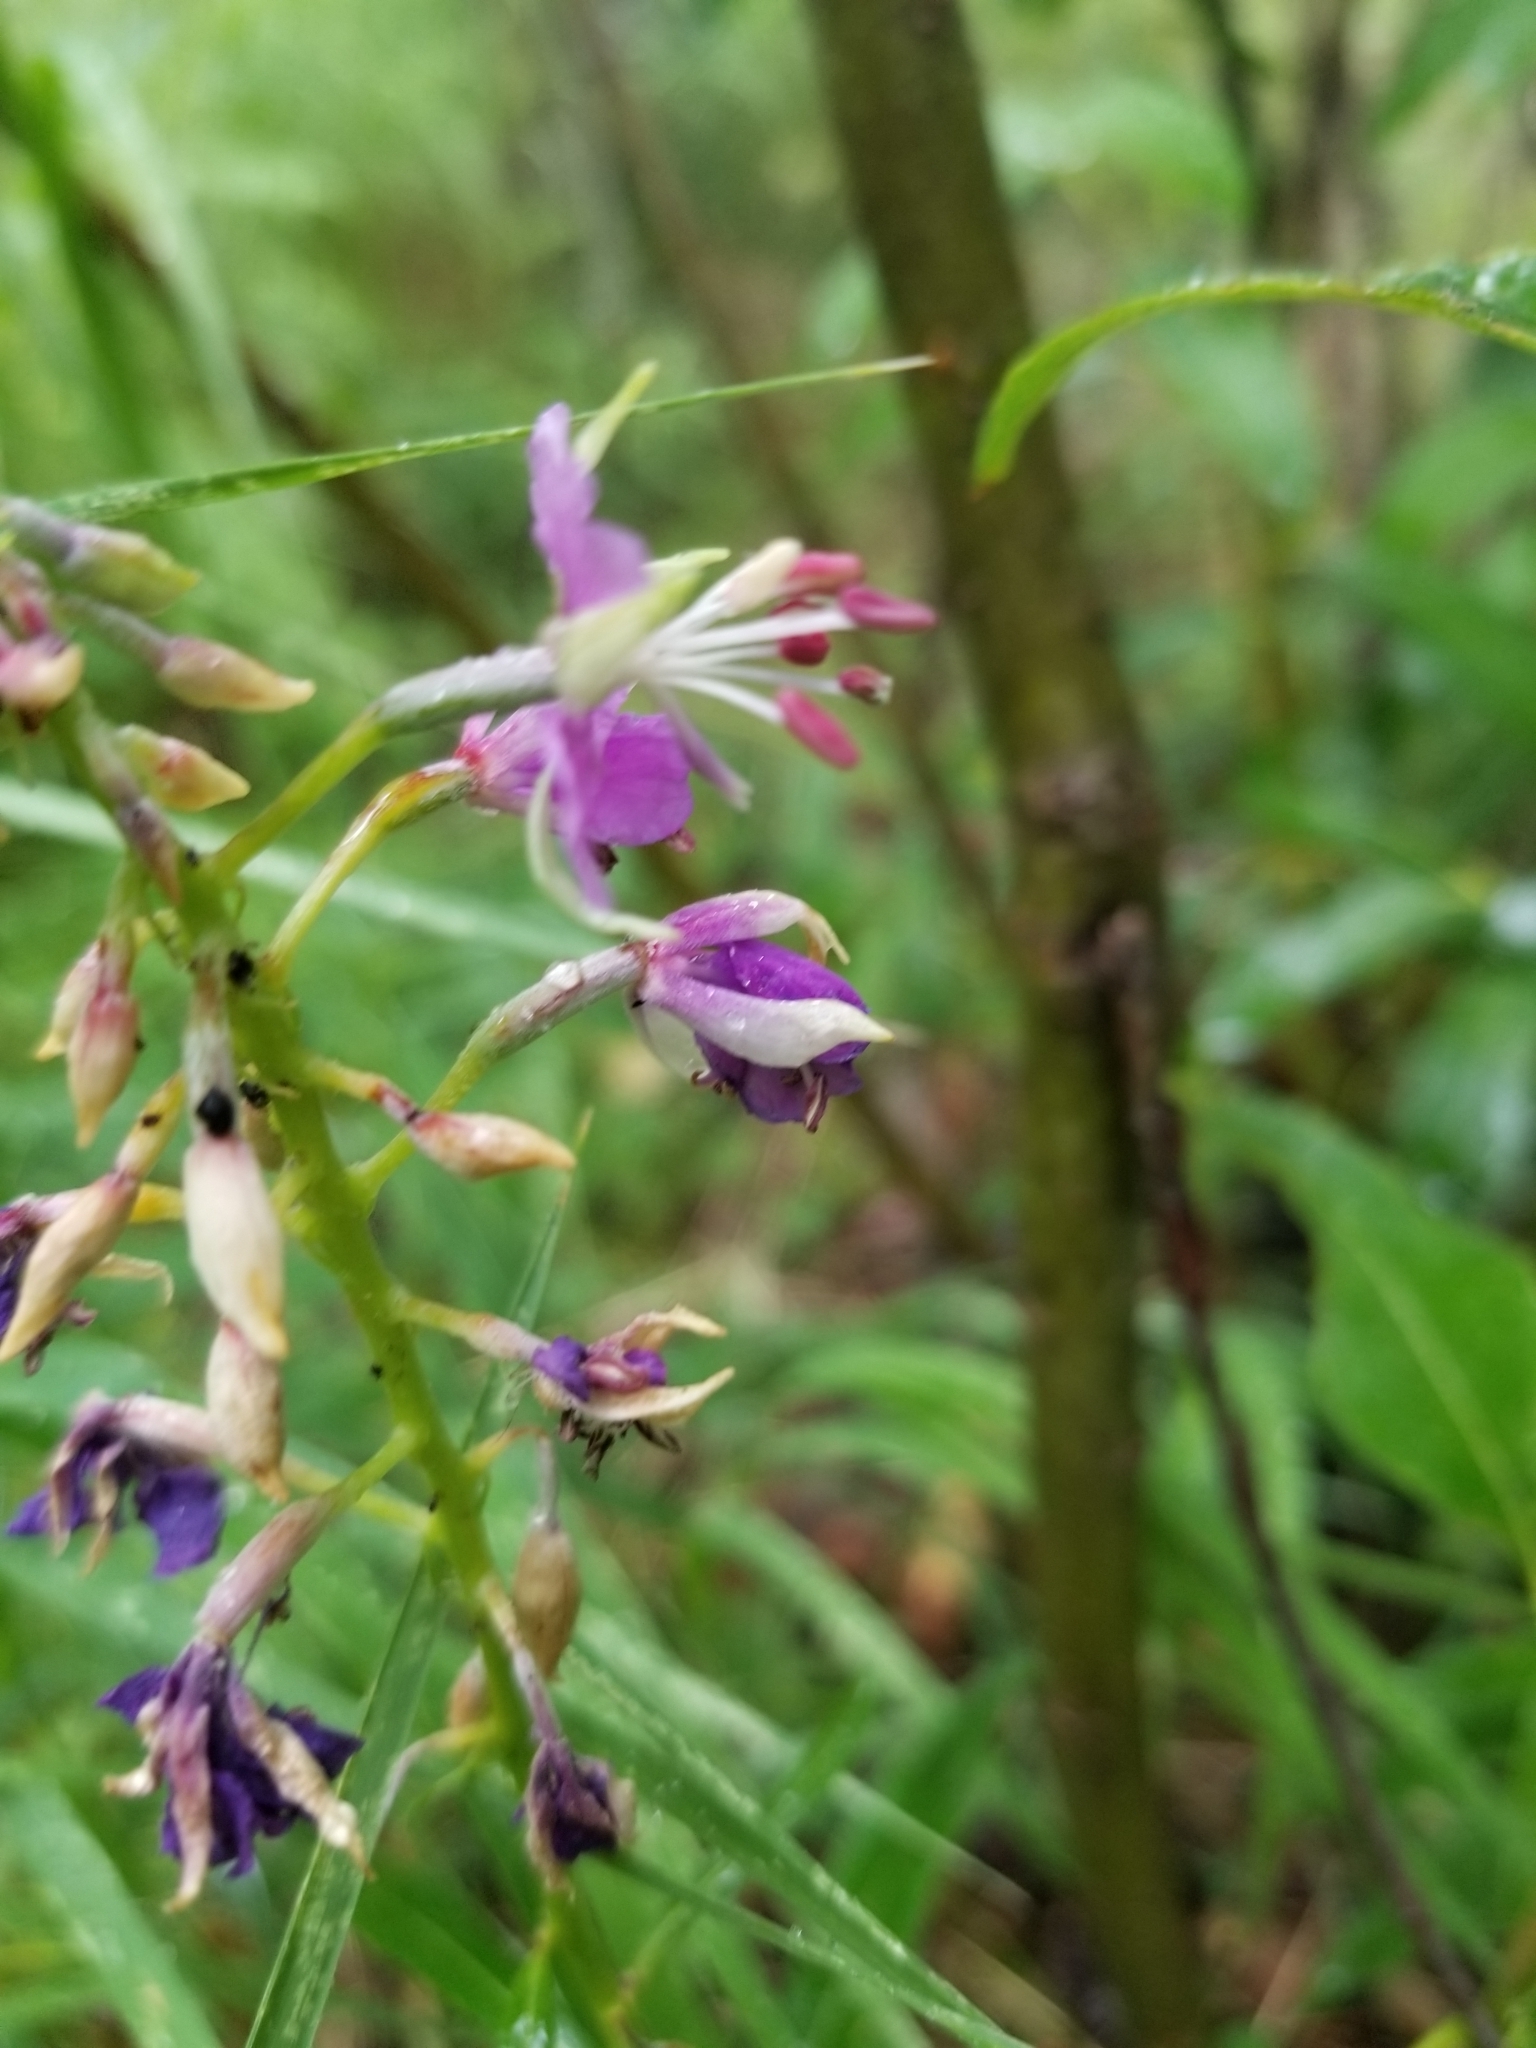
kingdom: Plantae
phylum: Tracheophyta
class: Magnoliopsida
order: Myrtales
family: Onagraceae
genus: Chamaenerion
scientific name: Chamaenerion angustifolium
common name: Fireweed
